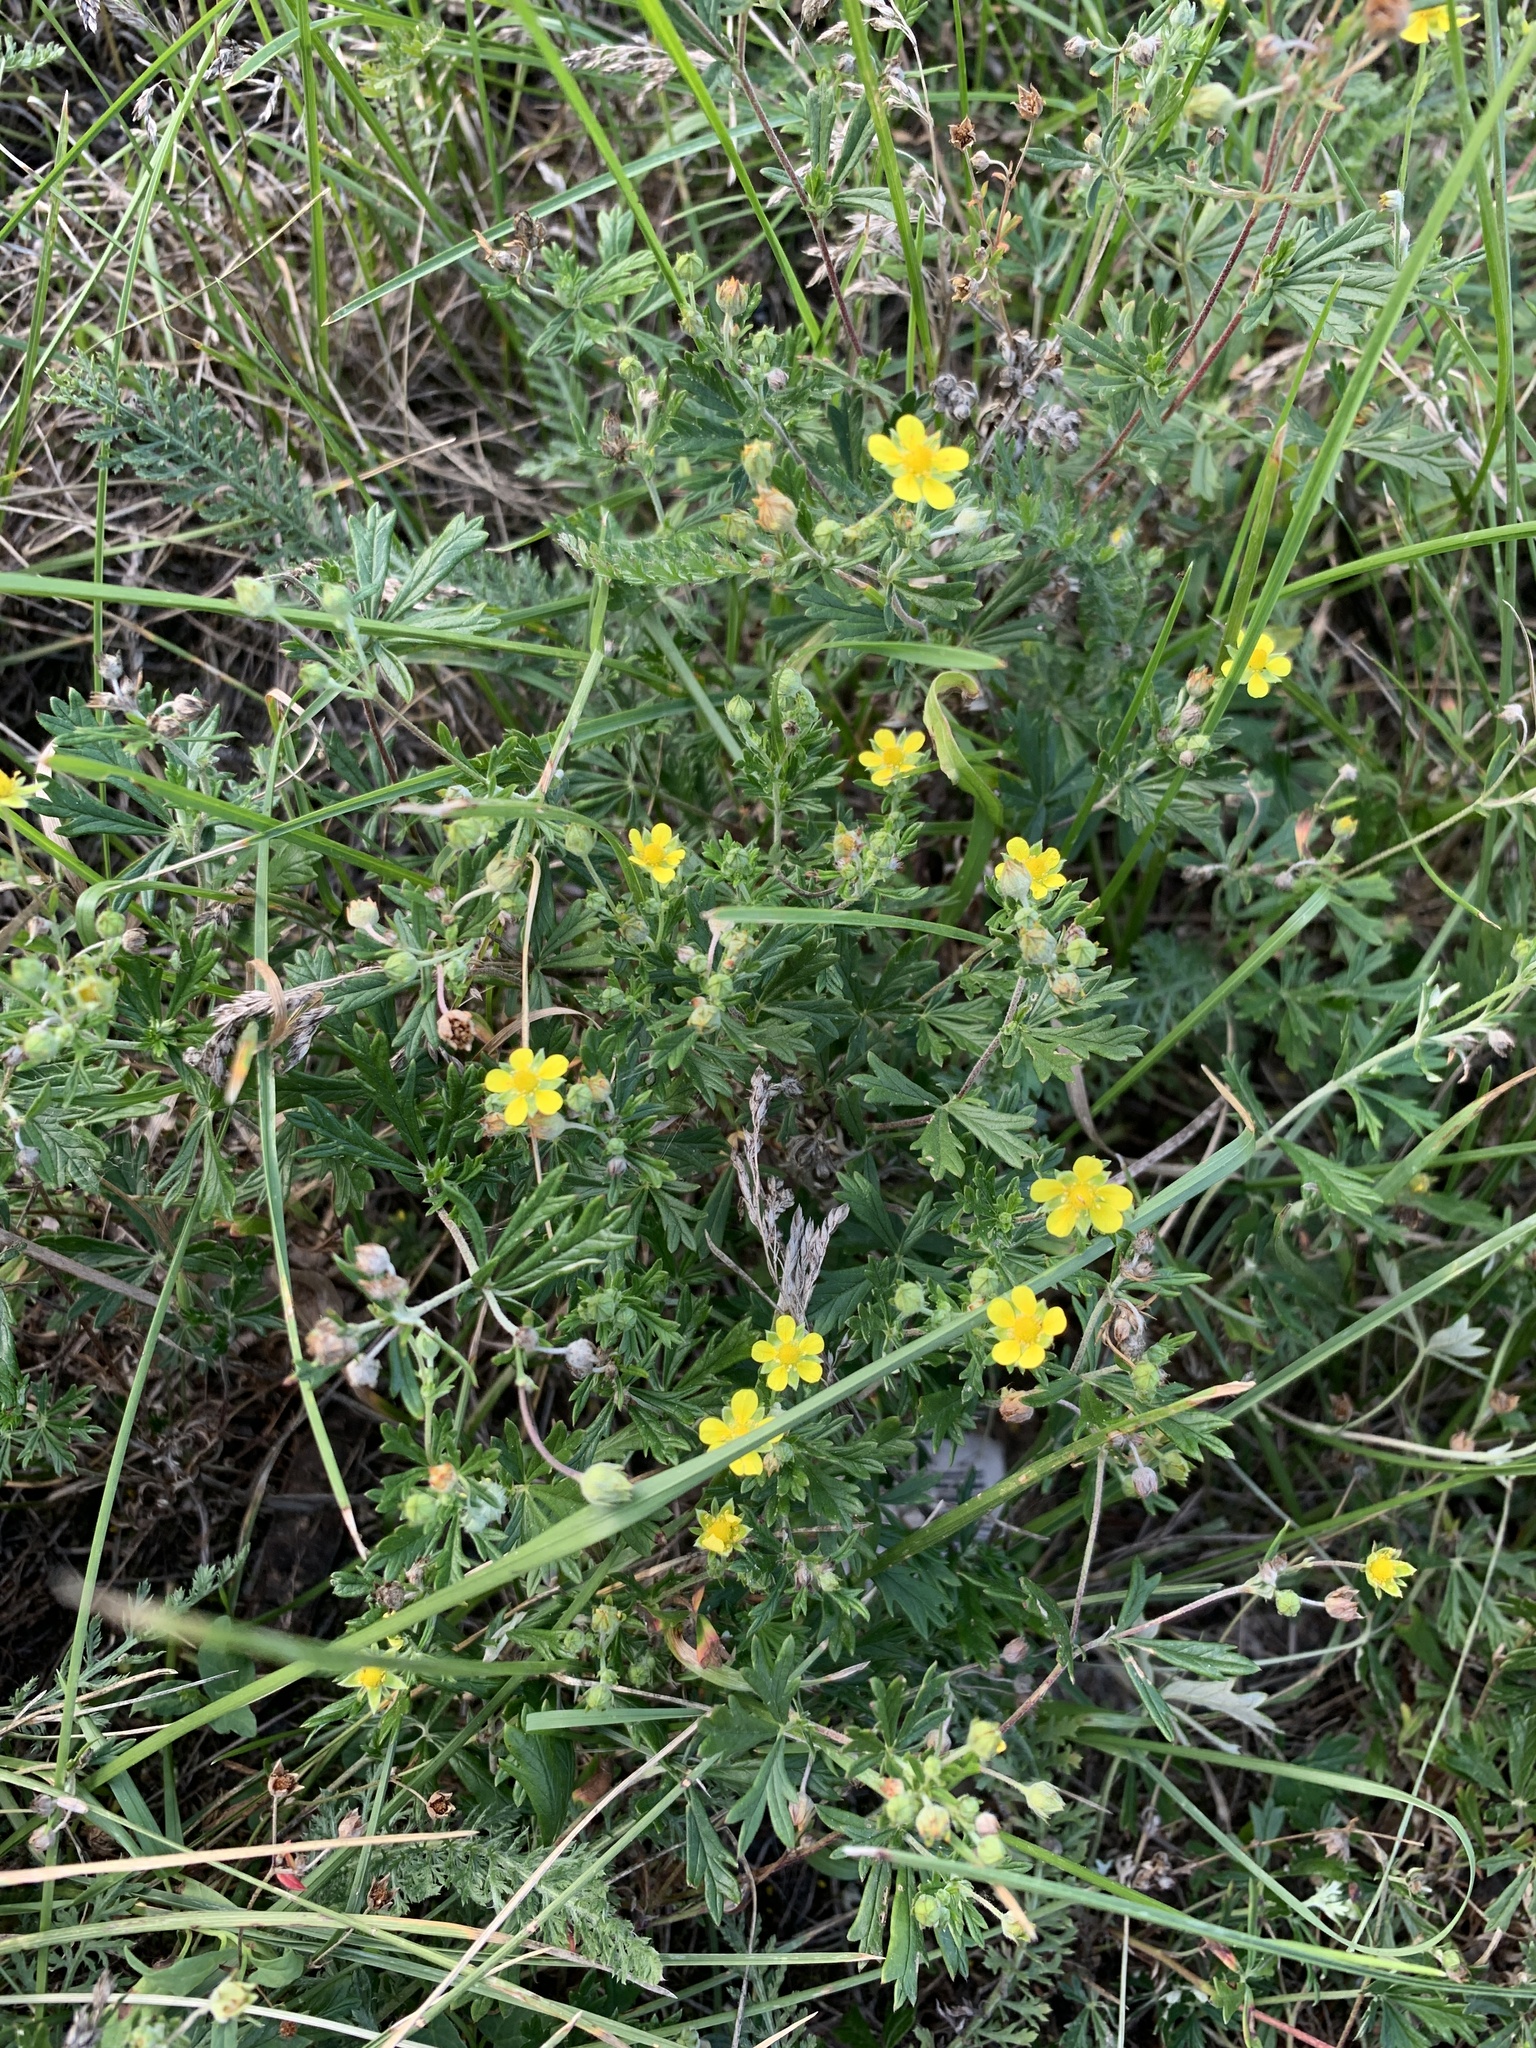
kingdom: Plantae
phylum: Tracheophyta
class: Magnoliopsida
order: Rosales
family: Rosaceae
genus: Potentilla
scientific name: Potentilla argentea
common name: Hoary cinquefoil
